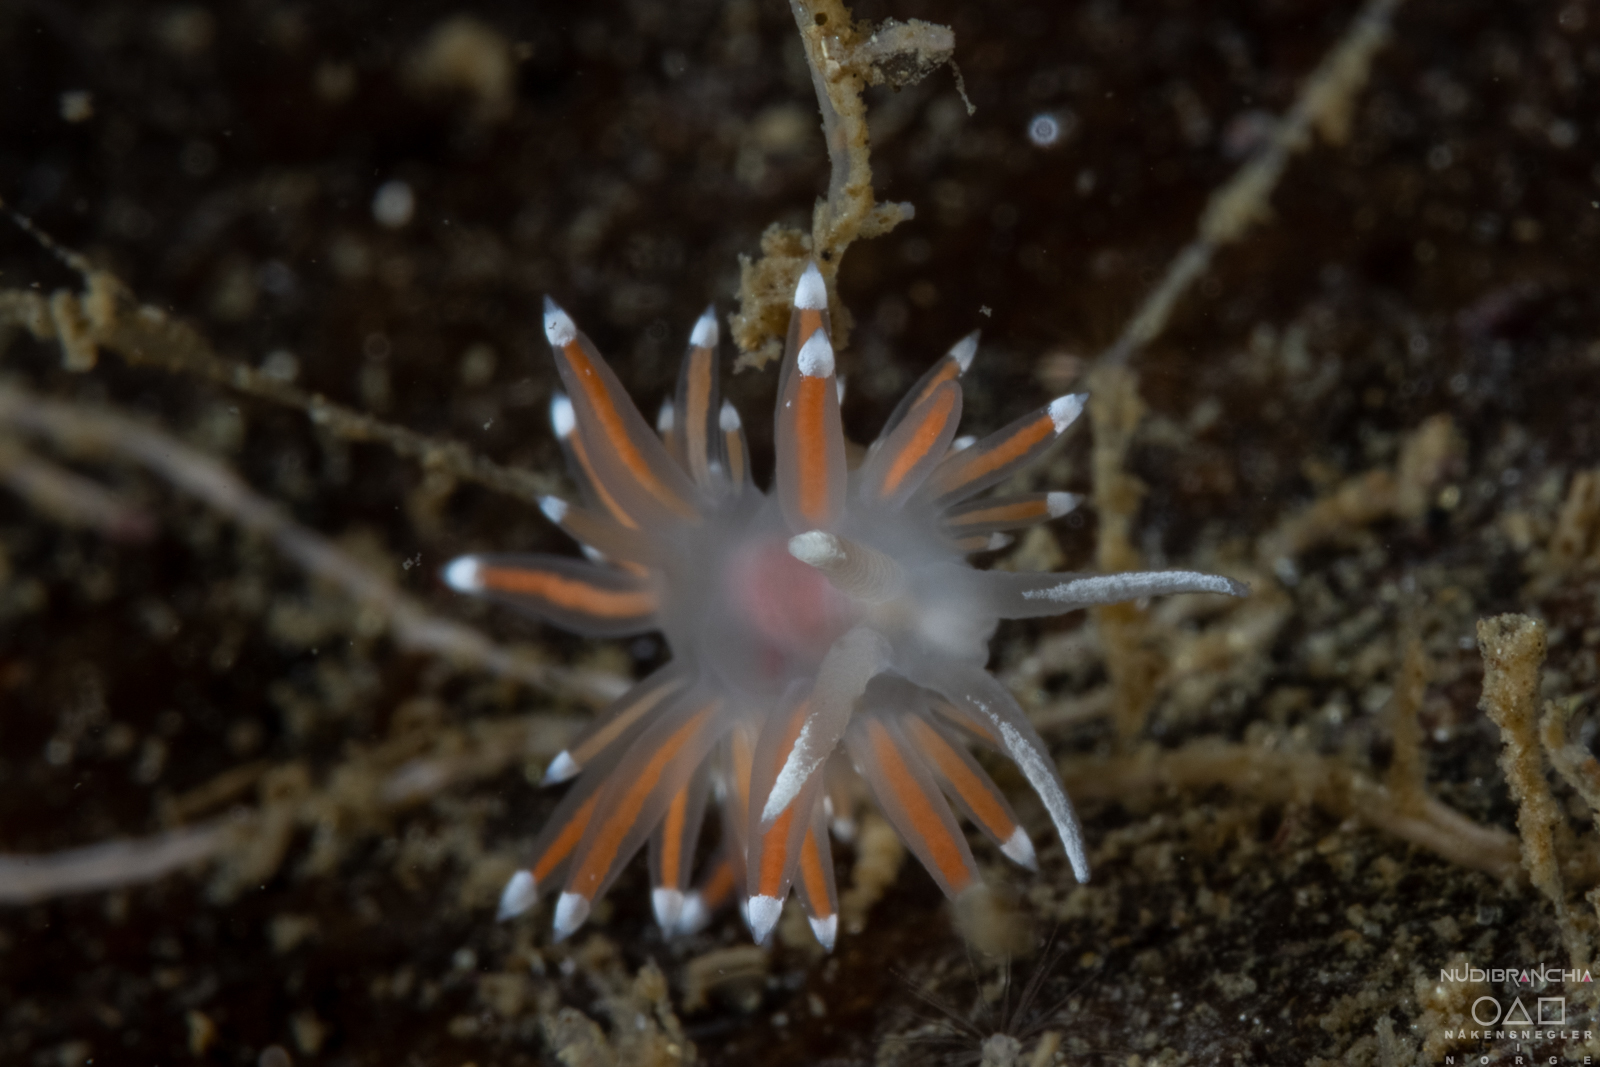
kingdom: Animalia
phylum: Mollusca
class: Gastropoda
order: Nudibranchia
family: Coryphellidae
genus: Coryphella
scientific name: Coryphella browni
